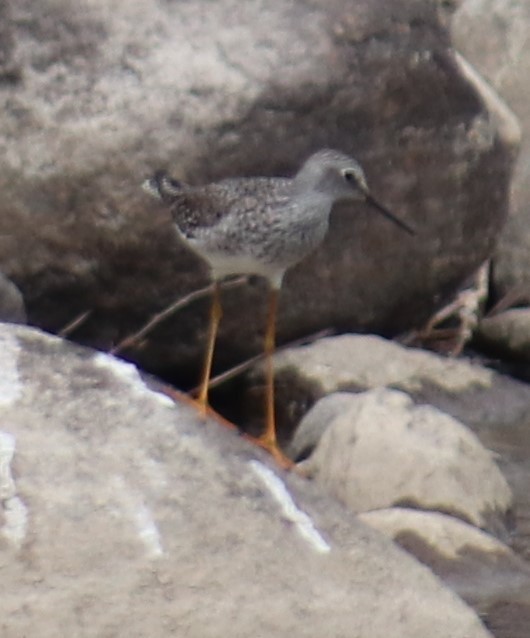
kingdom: Animalia
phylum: Chordata
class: Aves
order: Charadriiformes
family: Scolopacidae
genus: Tringa
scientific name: Tringa flavipes
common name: Lesser yellowlegs
